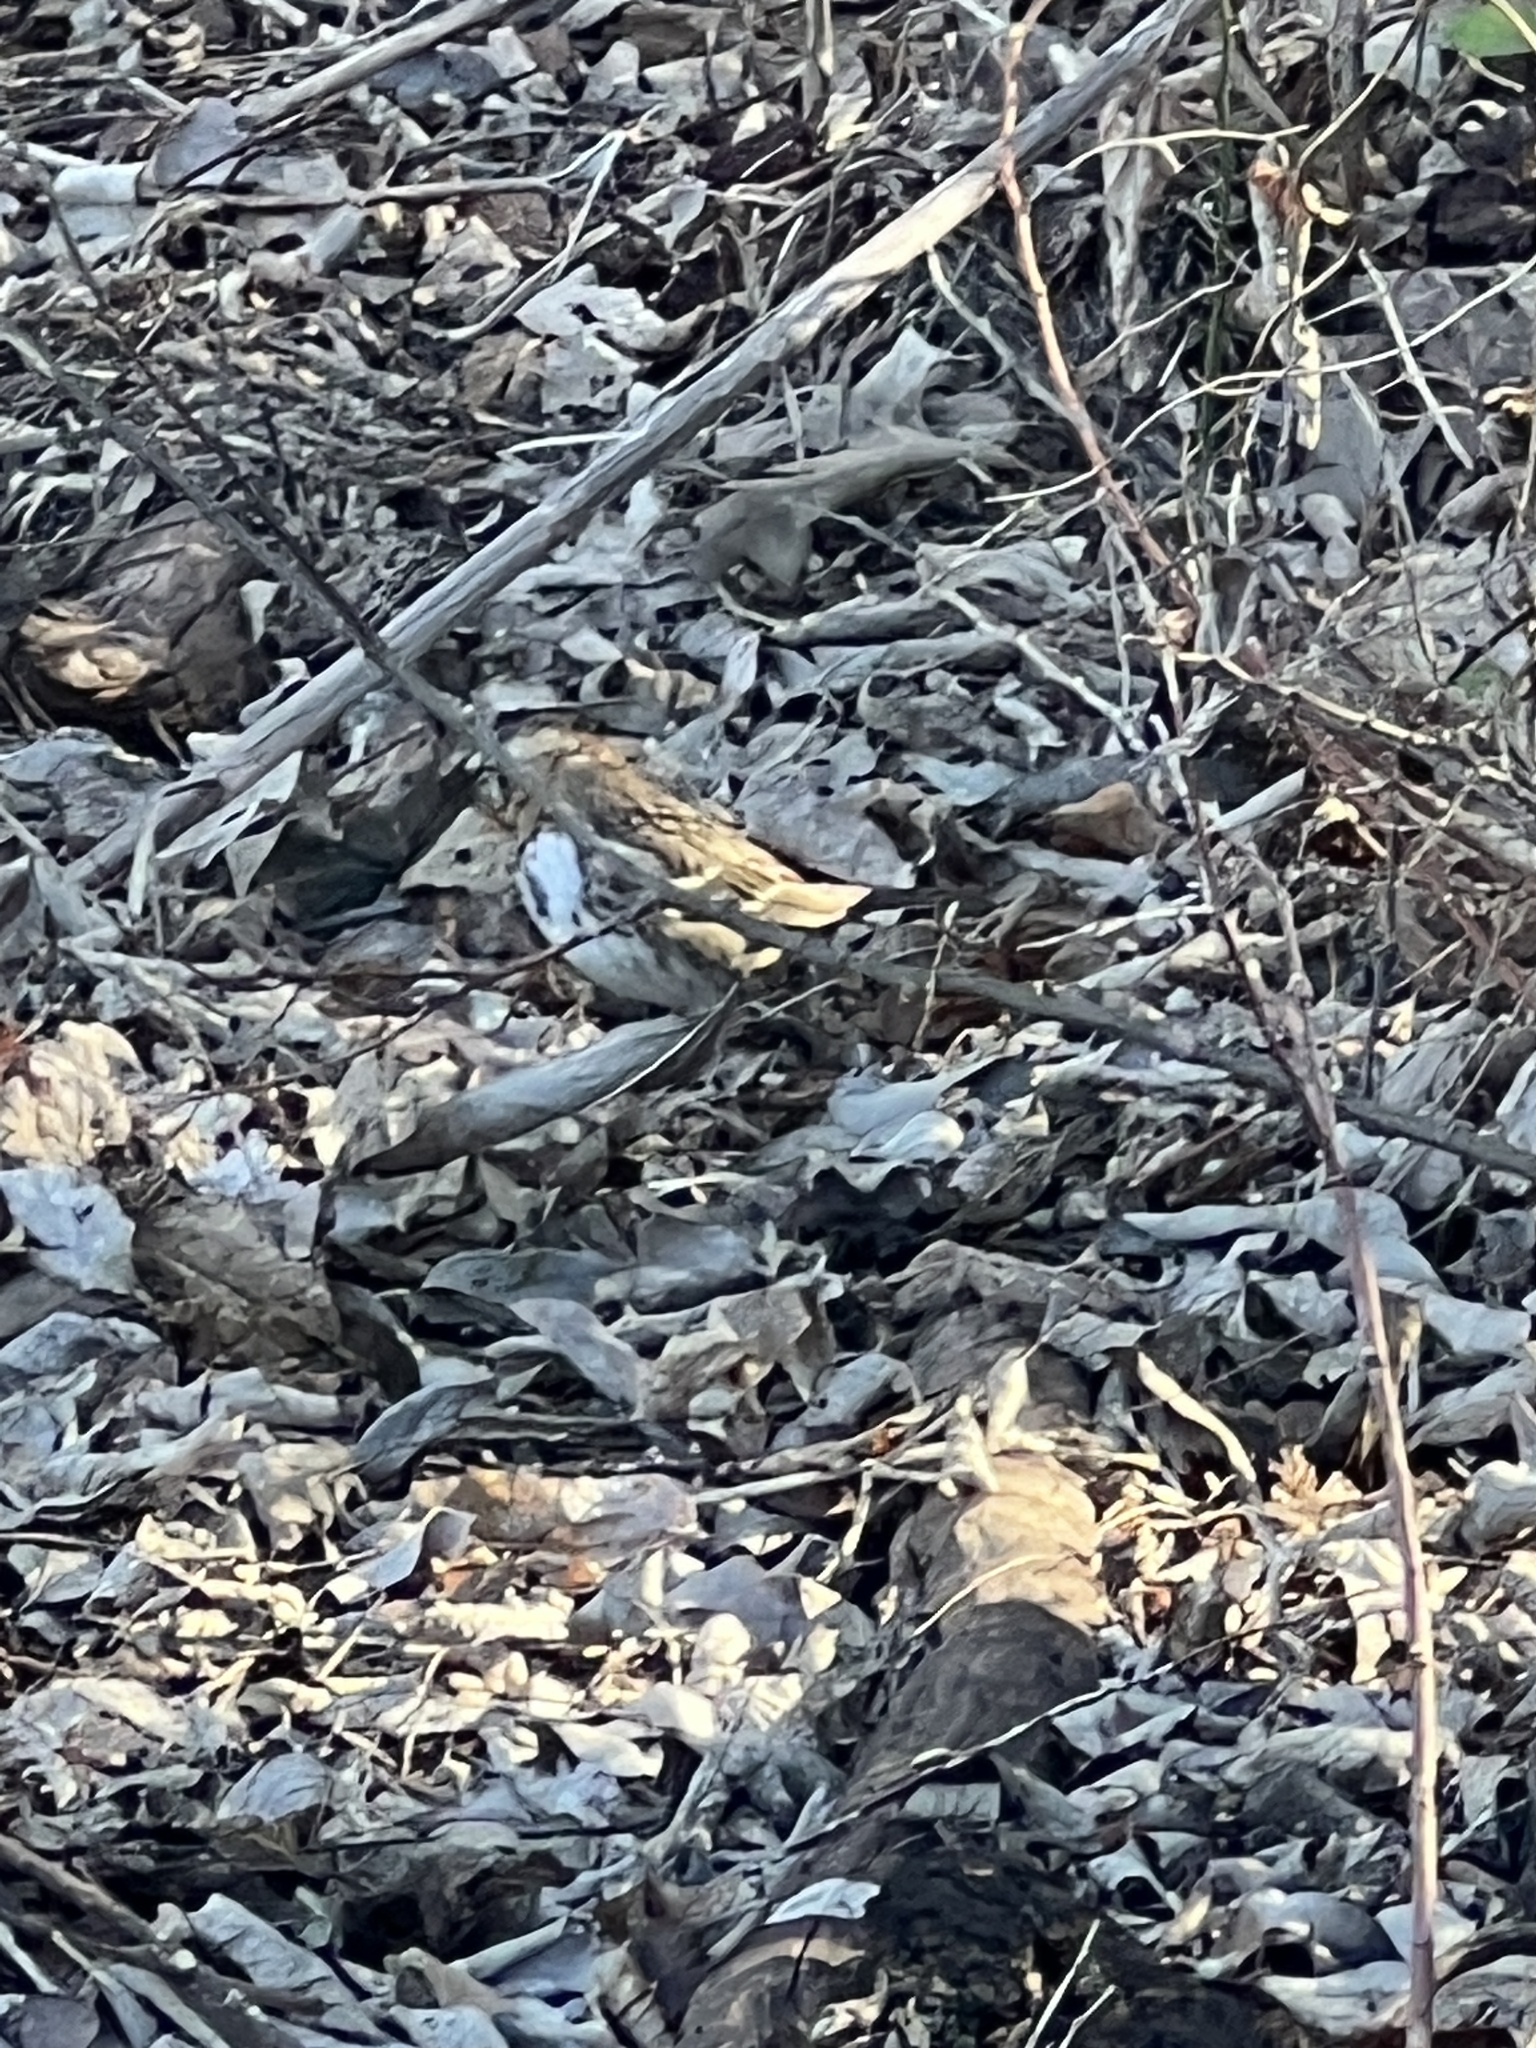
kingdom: Animalia
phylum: Chordata
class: Aves
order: Passeriformes
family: Passerellidae
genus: Zonotrichia
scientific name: Zonotrichia querula
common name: Harris's sparrow
